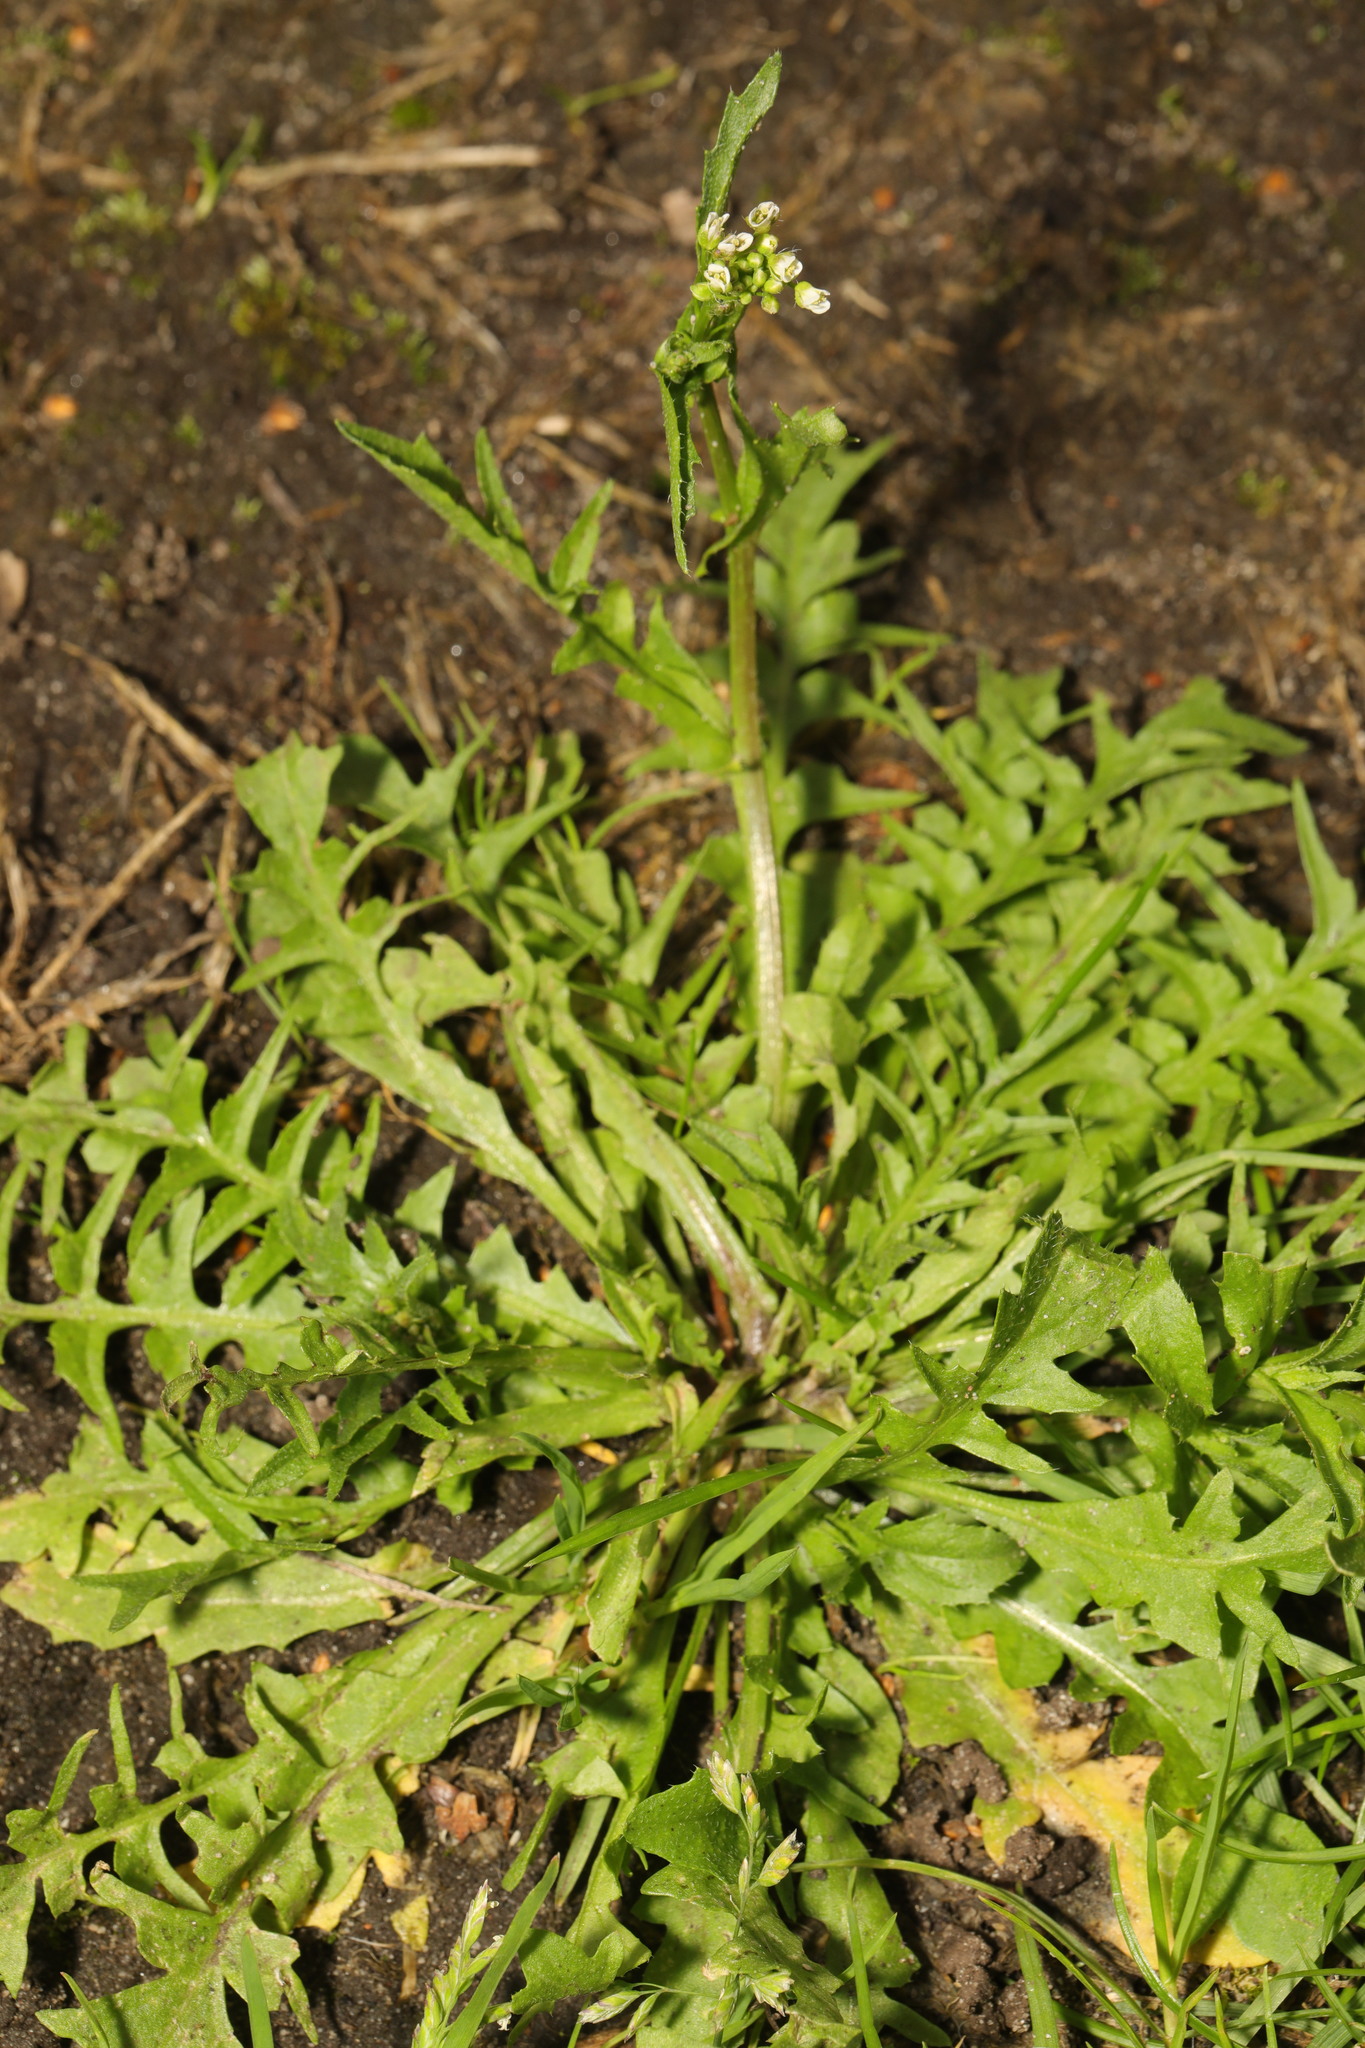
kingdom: Plantae
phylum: Tracheophyta
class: Magnoliopsida
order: Brassicales
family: Brassicaceae
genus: Capsella
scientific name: Capsella bursa-pastoris
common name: Shepherd's purse
